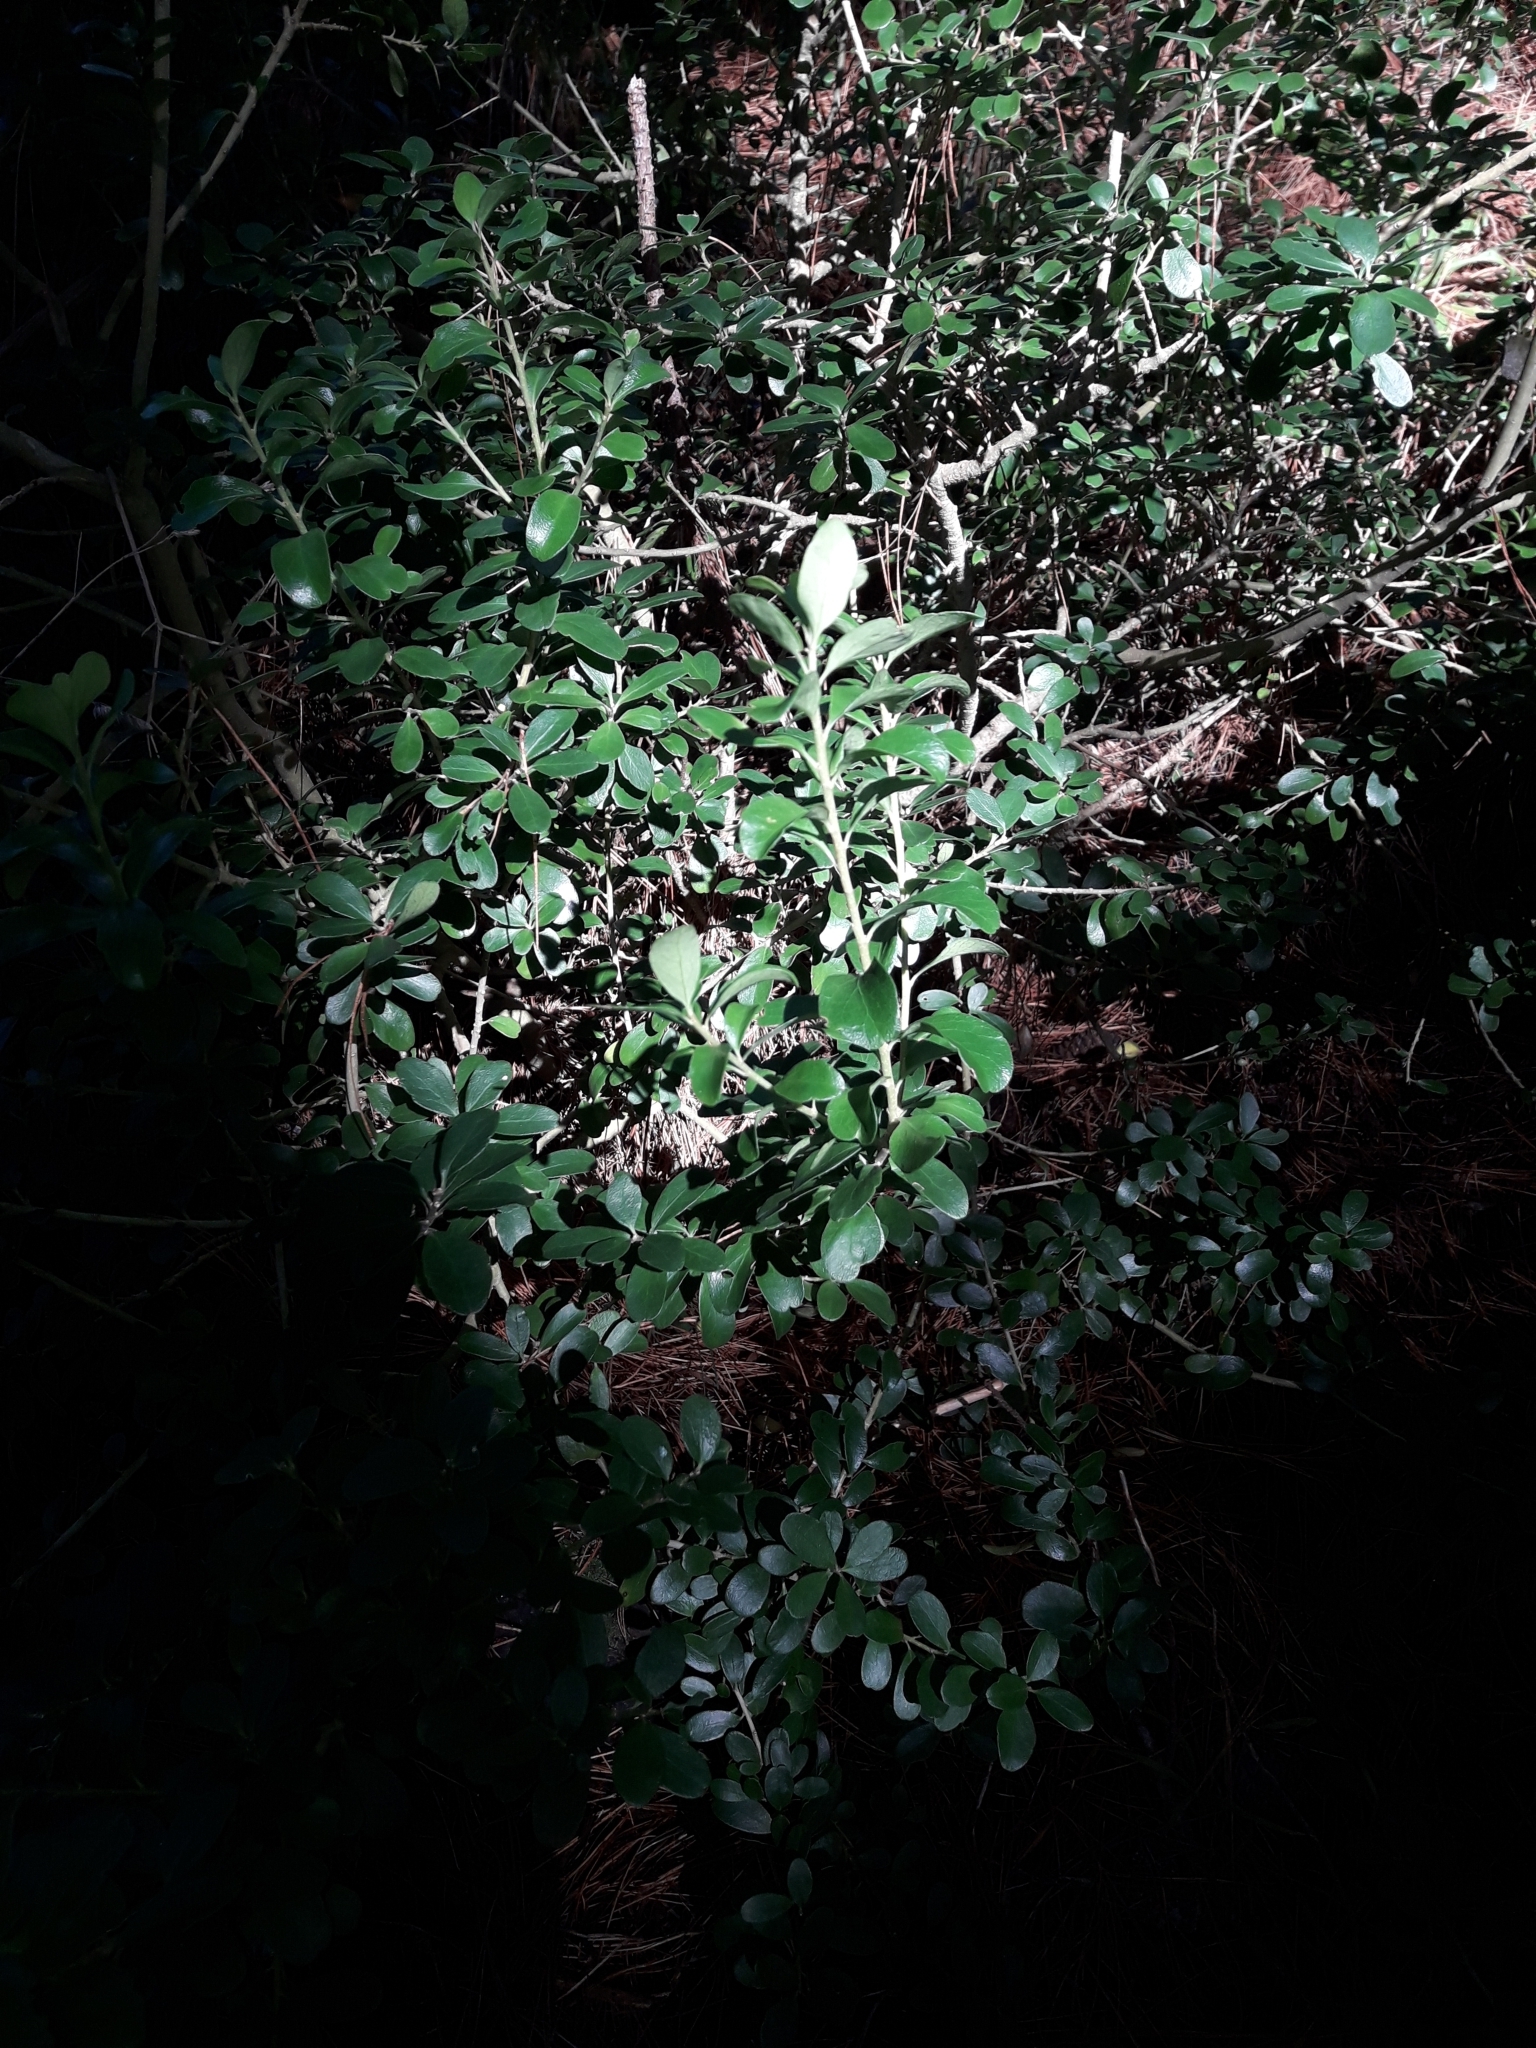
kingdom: Plantae
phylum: Tracheophyta
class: Magnoliopsida
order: Malpighiales
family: Violaceae
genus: Melicytus
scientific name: Melicytus orarius
